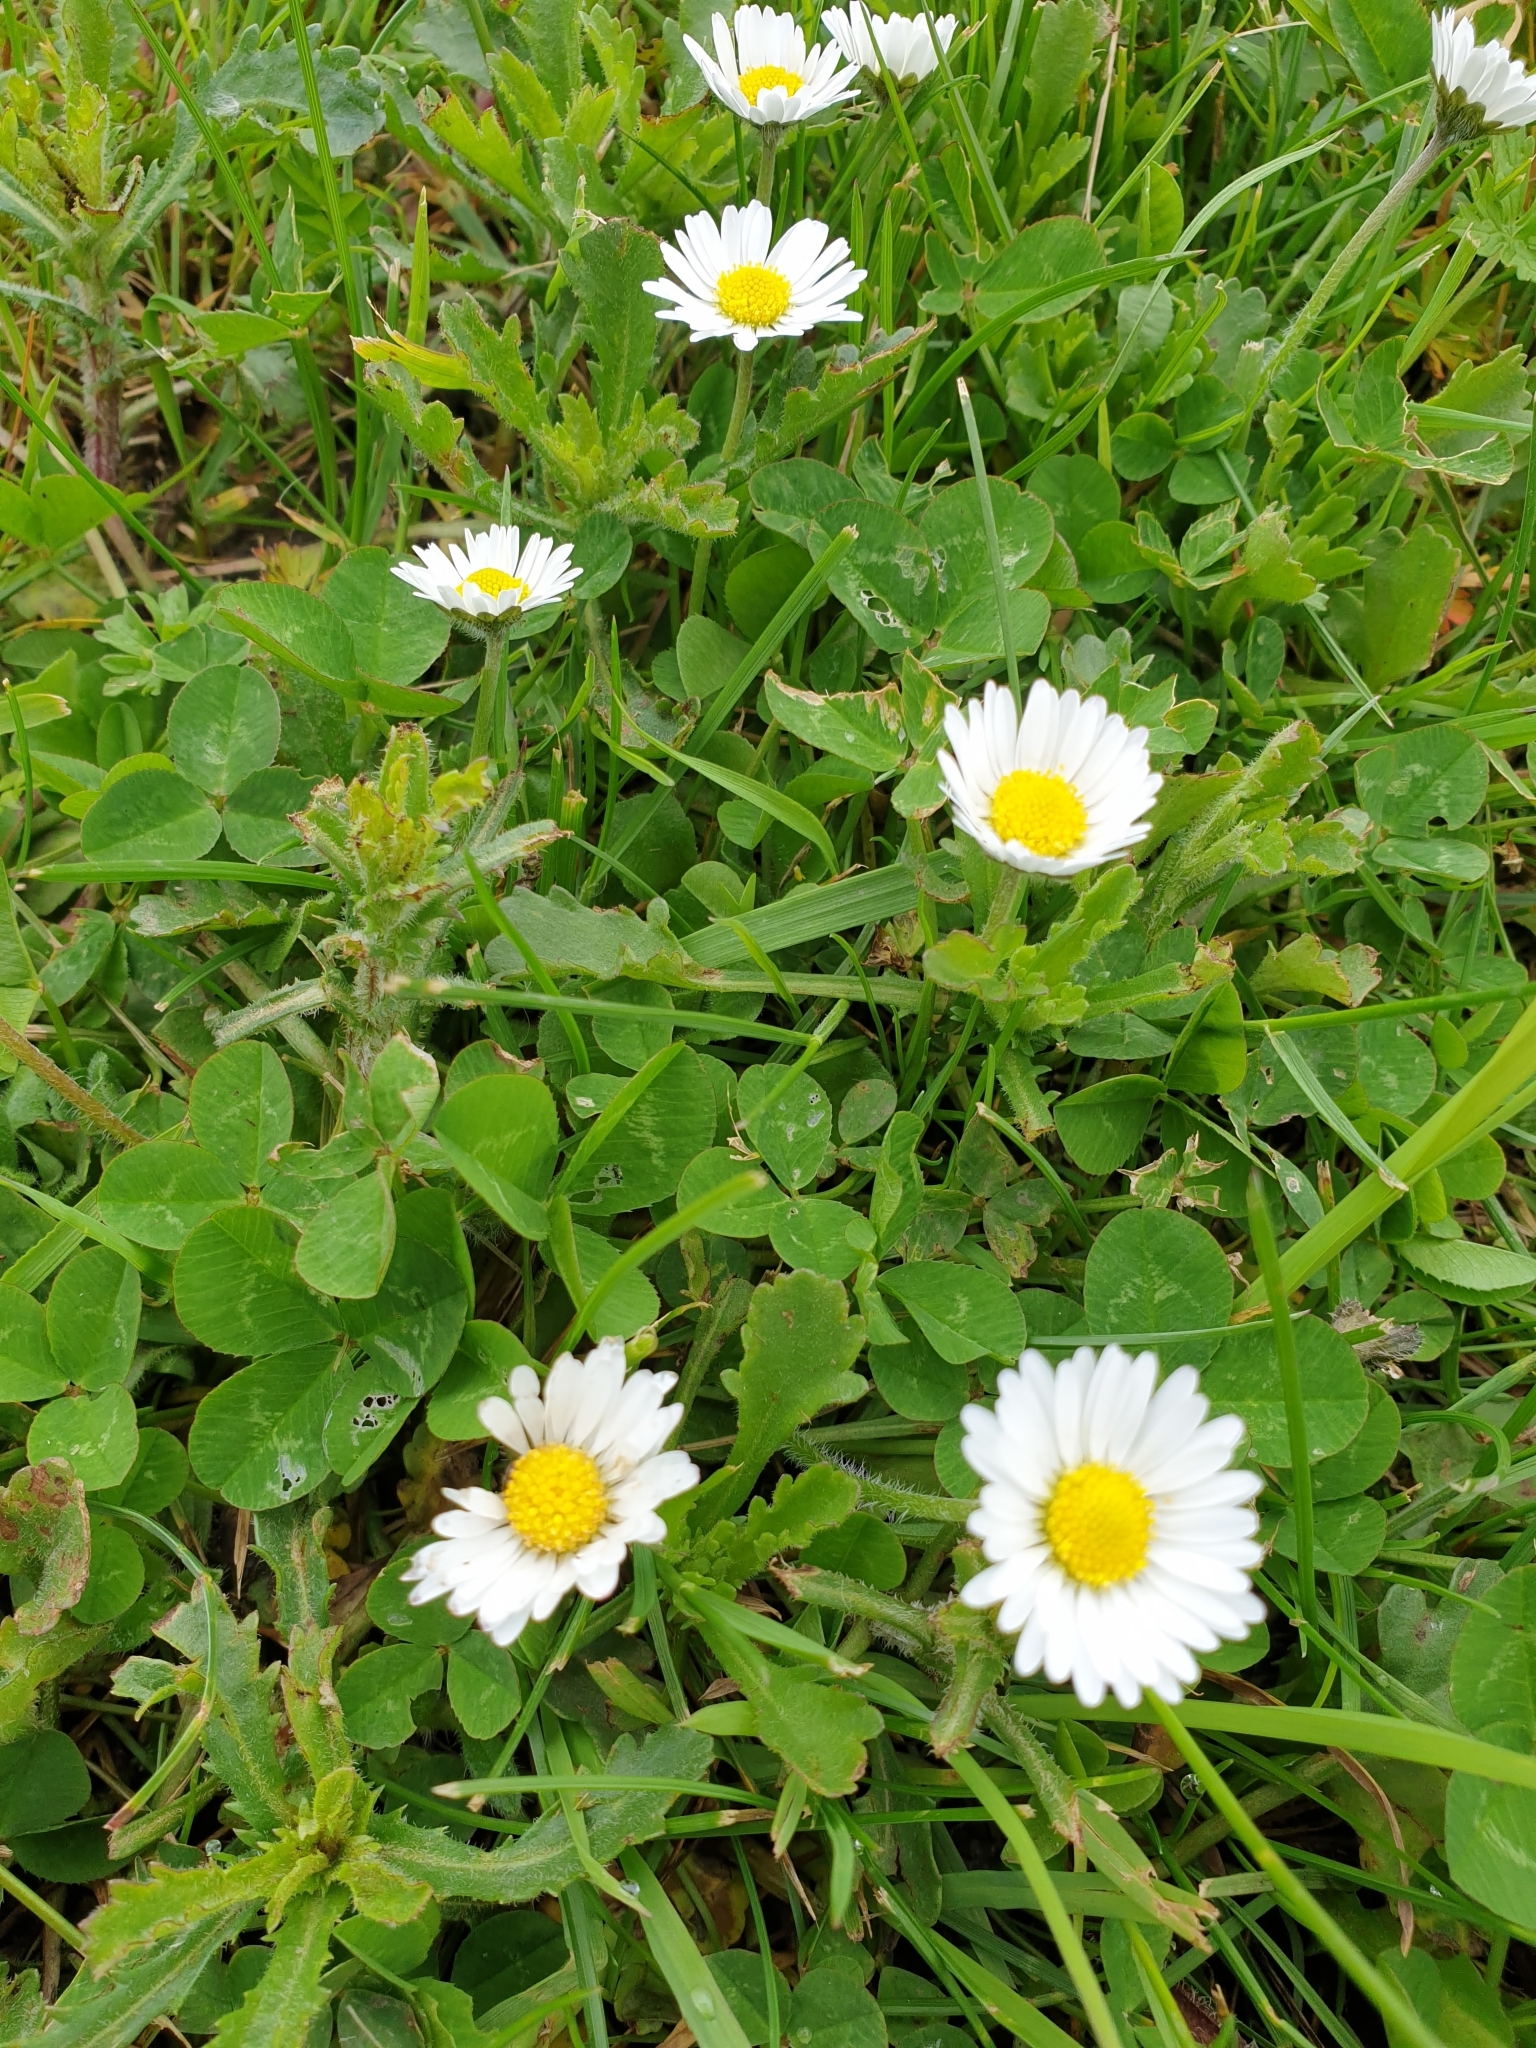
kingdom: Plantae
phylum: Tracheophyta
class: Magnoliopsida
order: Asterales
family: Asteraceae
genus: Bellis
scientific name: Bellis perennis
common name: Lawndaisy
